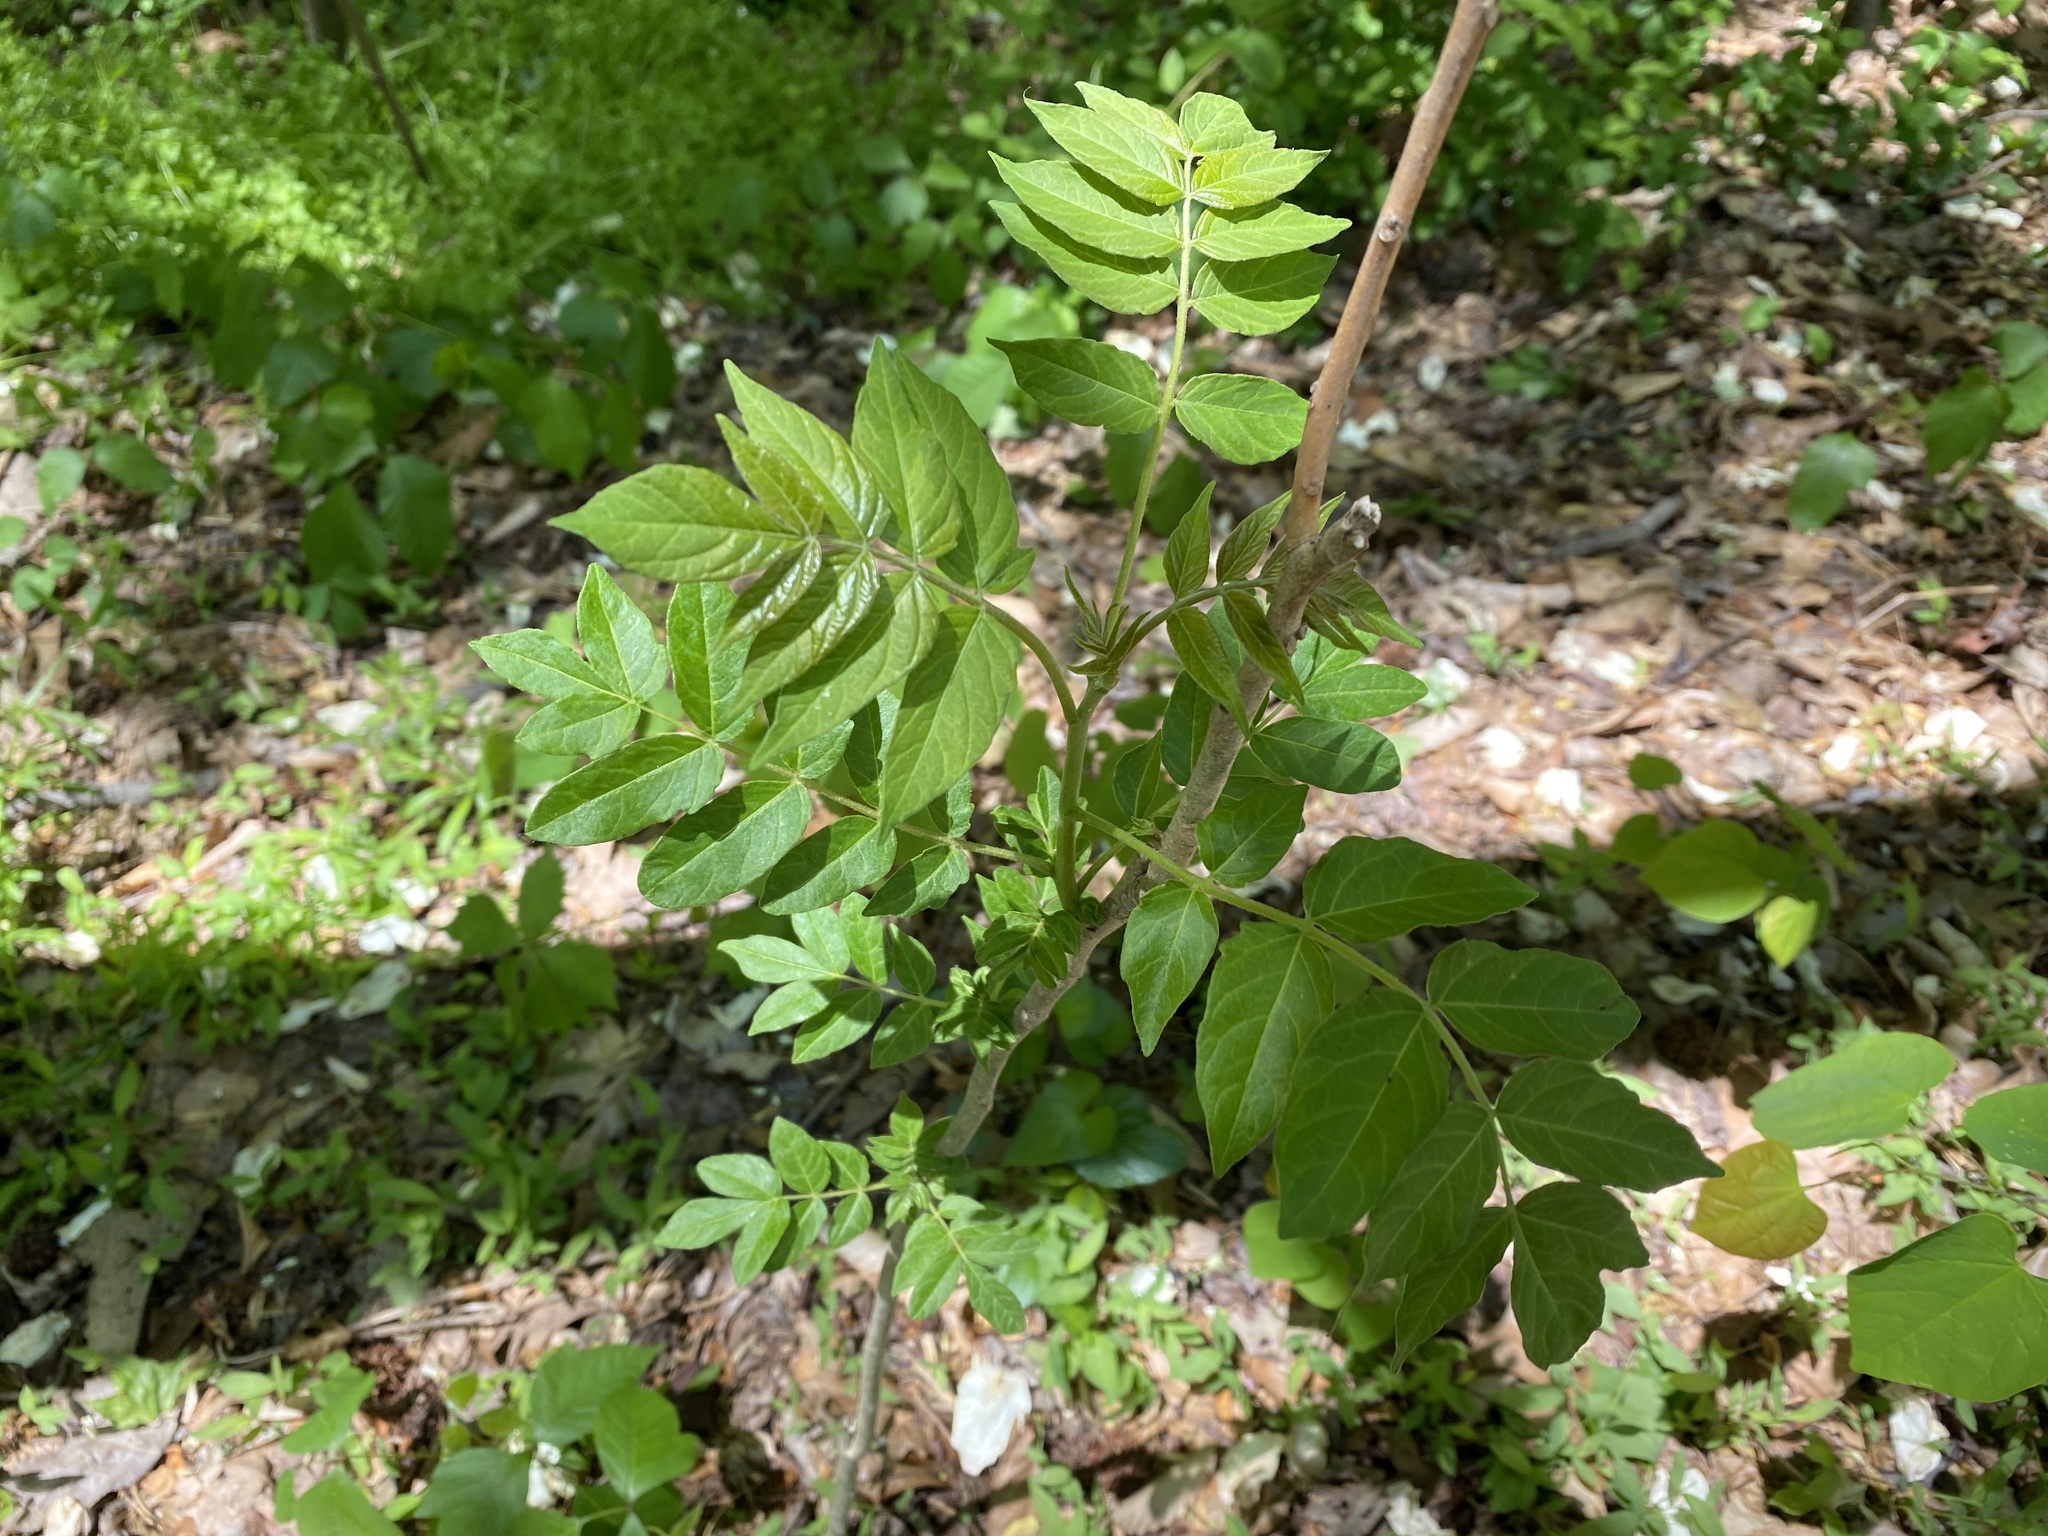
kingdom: Plantae
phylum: Tracheophyta
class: Magnoliopsida
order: Sapindales
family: Simaroubaceae
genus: Ailanthus
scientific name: Ailanthus altissima
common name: Tree-of-heaven
